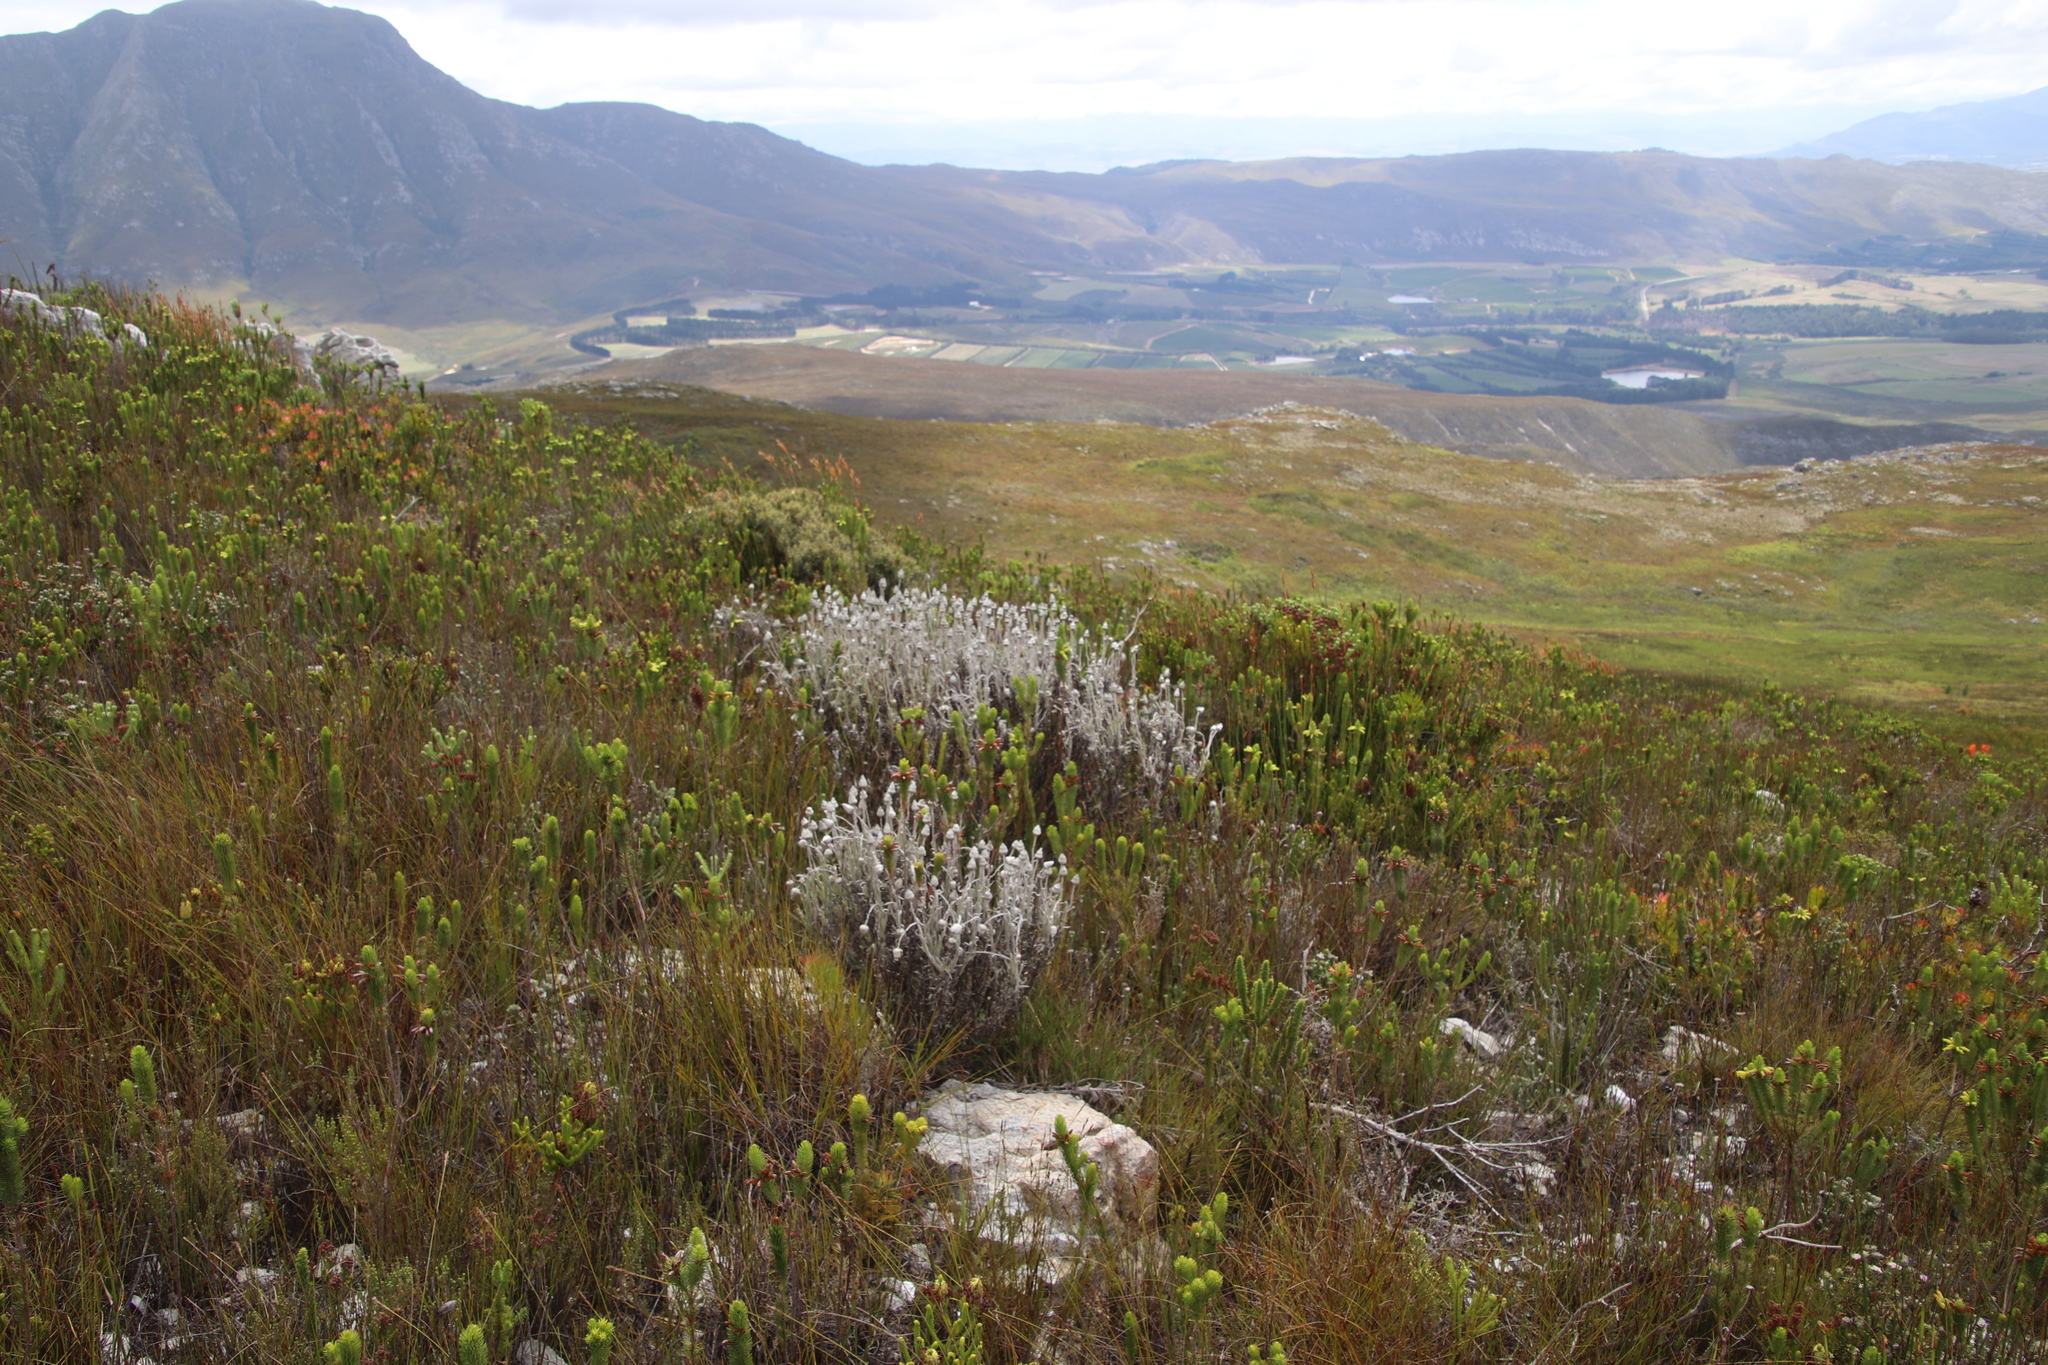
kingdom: Plantae
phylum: Tracheophyta
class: Magnoliopsida
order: Asterales
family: Asteraceae
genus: Syncarpha
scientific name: Syncarpha vestita
